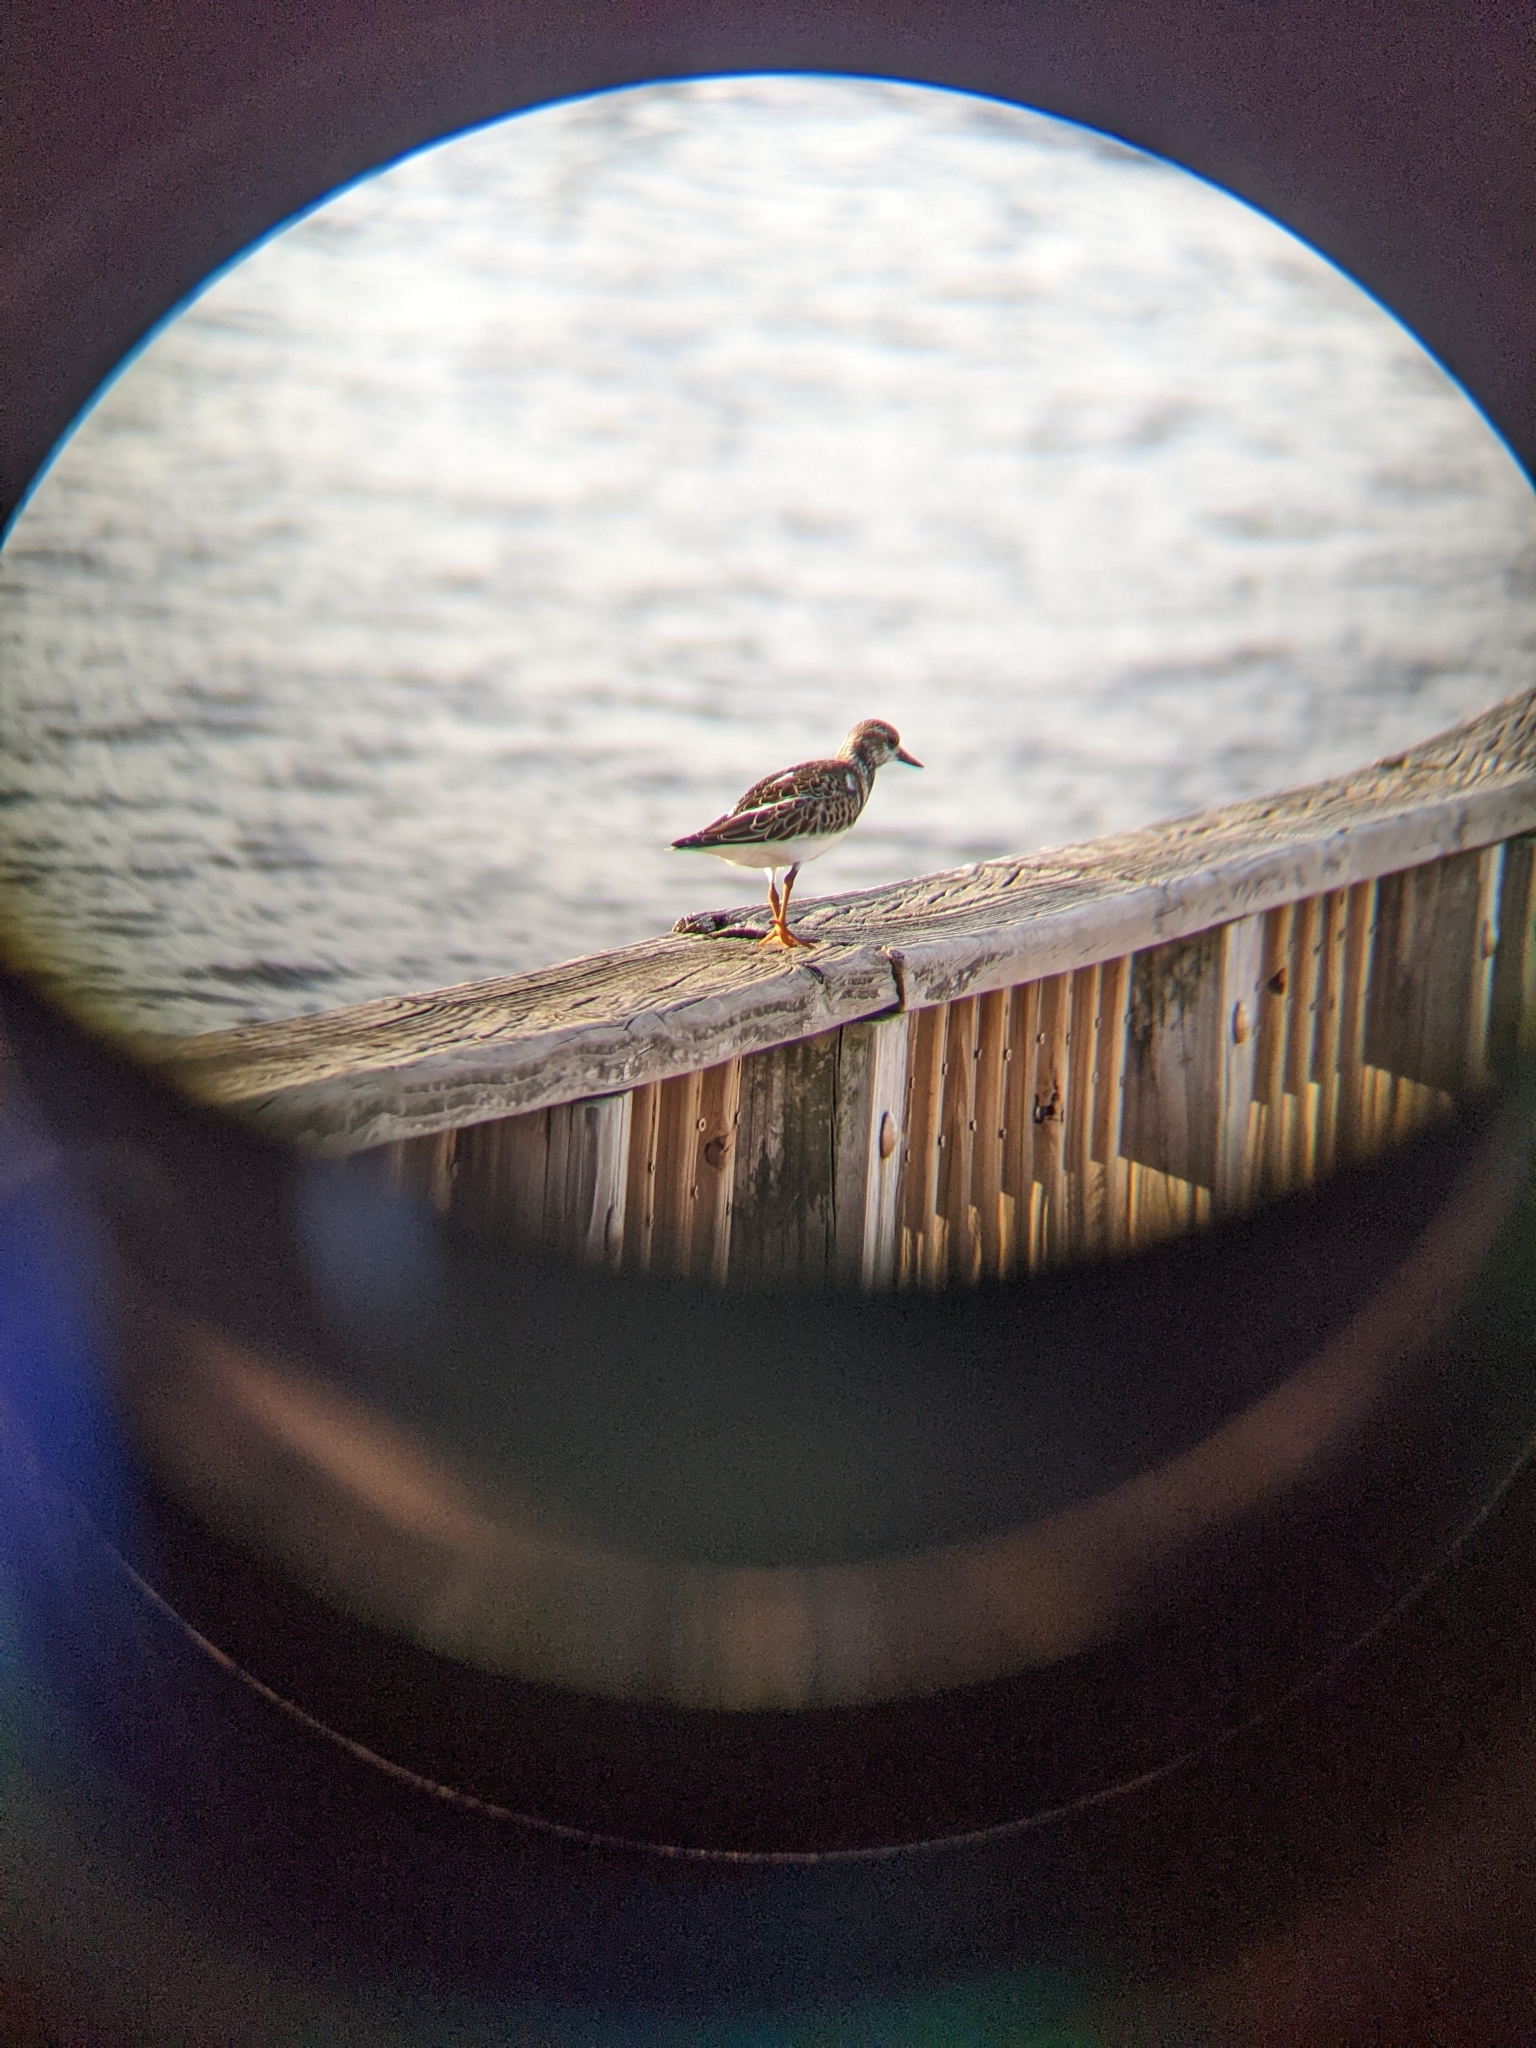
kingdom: Animalia
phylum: Chordata
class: Aves
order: Charadriiformes
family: Scolopacidae
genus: Arenaria
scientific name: Arenaria interpres
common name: Ruddy turnstone
